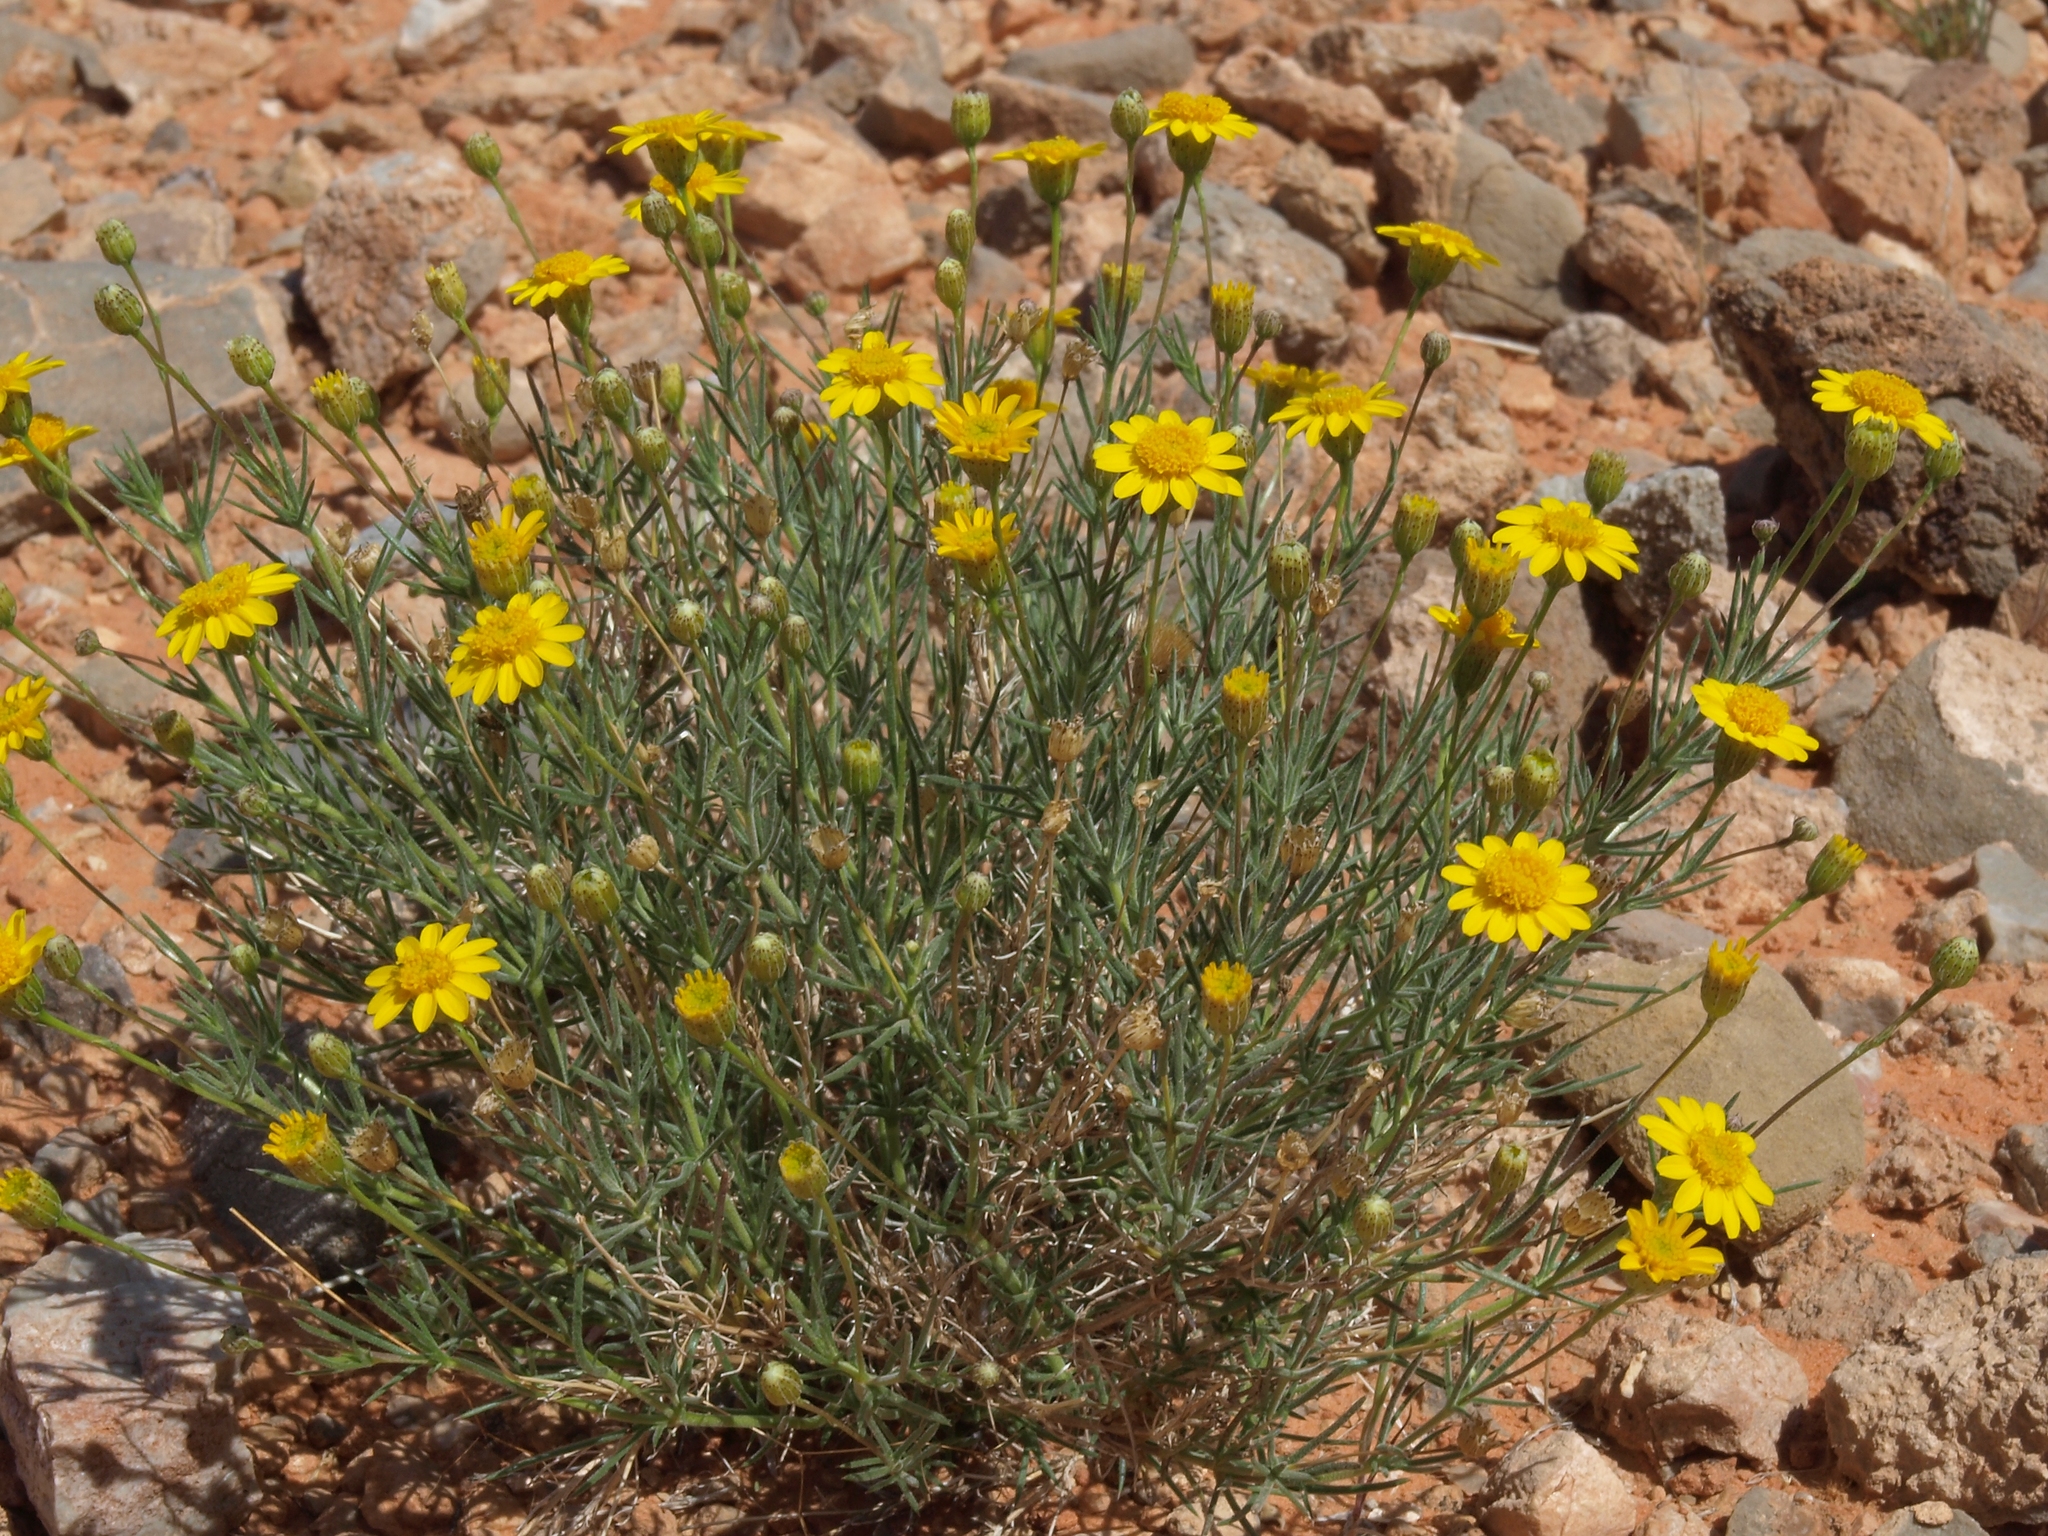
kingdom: Plantae
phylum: Tracheophyta
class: Magnoliopsida
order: Asterales
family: Asteraceae
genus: Thymophylla
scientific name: Thymophylla pentachaeta
